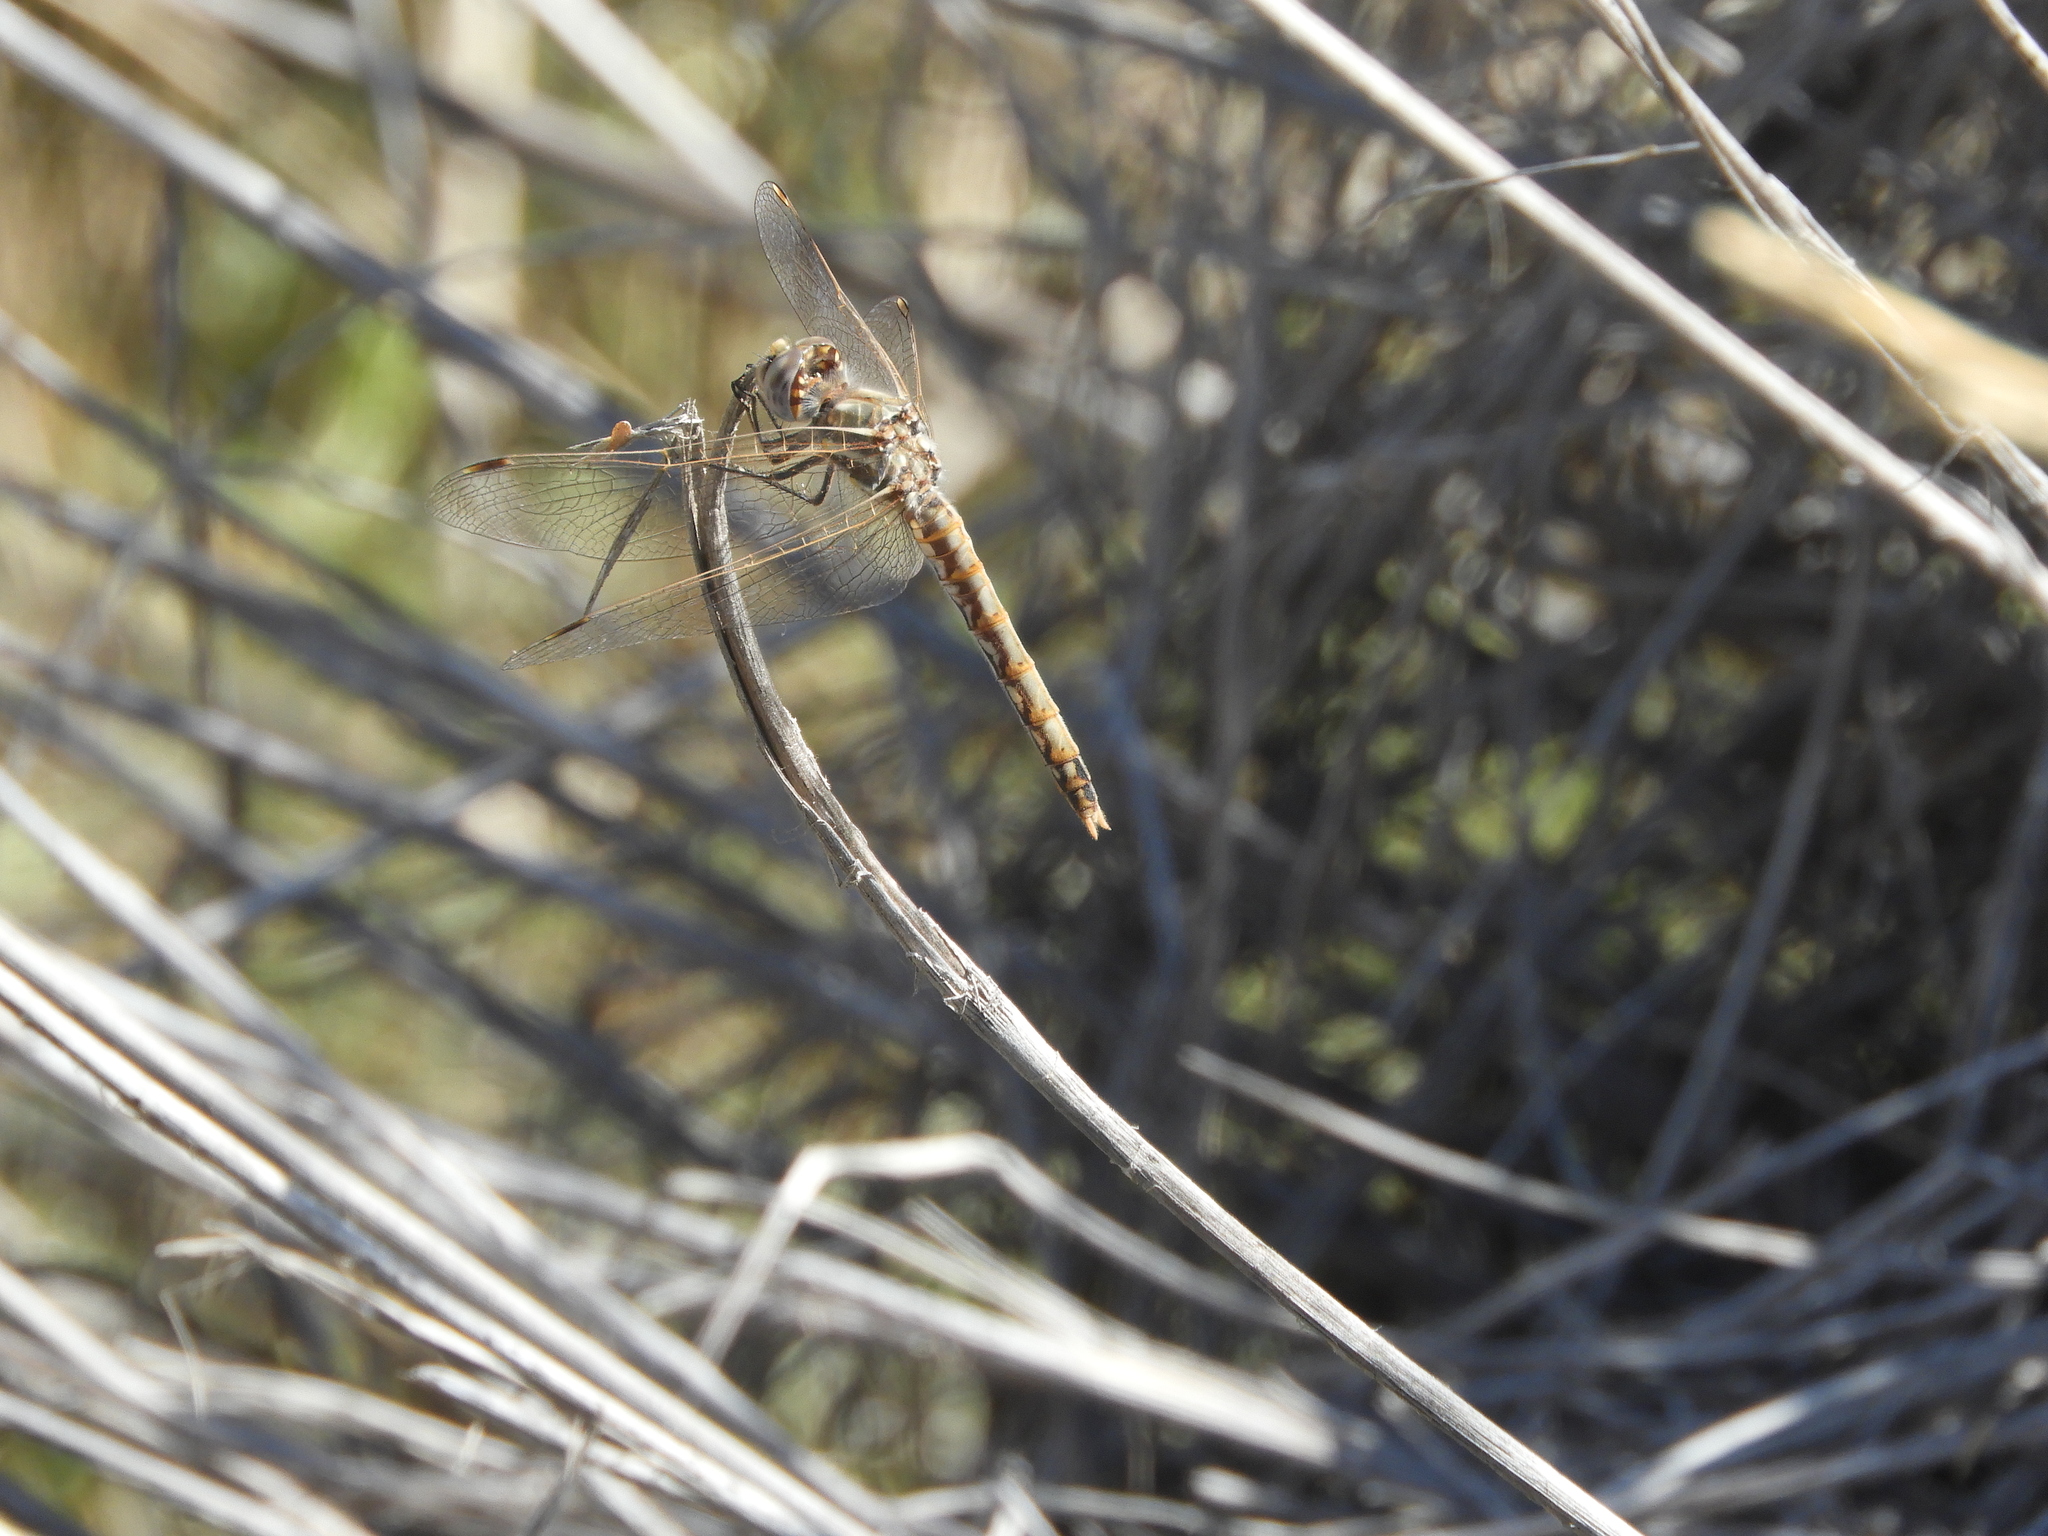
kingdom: Animalia
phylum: Arthropoda
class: Insecta
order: Odonata
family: Libellulidae
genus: Sympetrum
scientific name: Sympetrum corruptum
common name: Variegated meadowhawk
